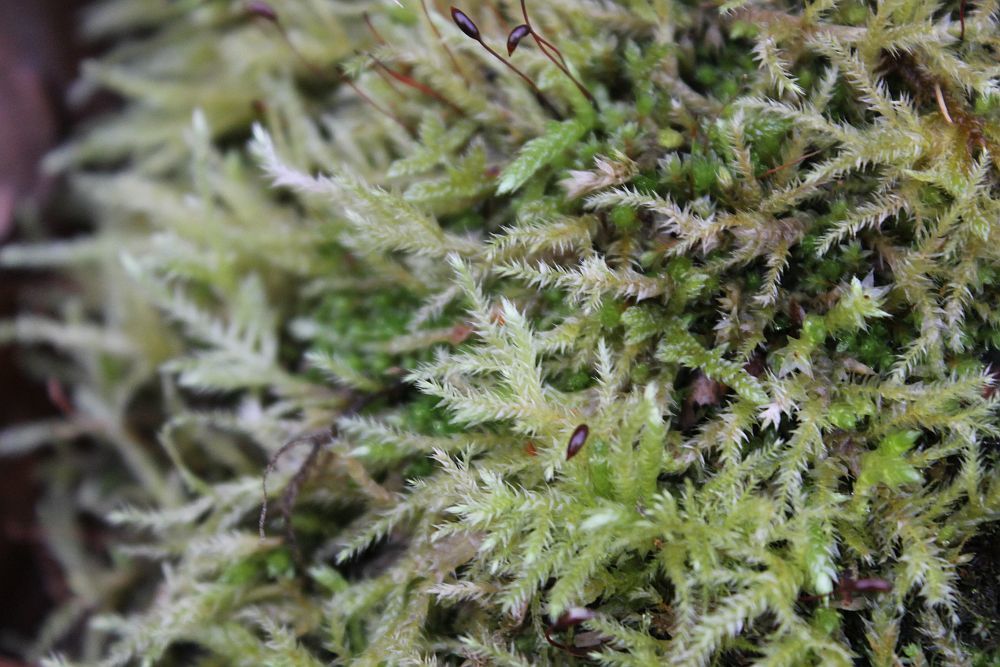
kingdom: Plantae
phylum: Bryophyta
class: Bryopsida
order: Hypnales
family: Brachytheciaceae
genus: Brachythecium
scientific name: Brachythecium rutabulum
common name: Rough-stalked feather-moss
